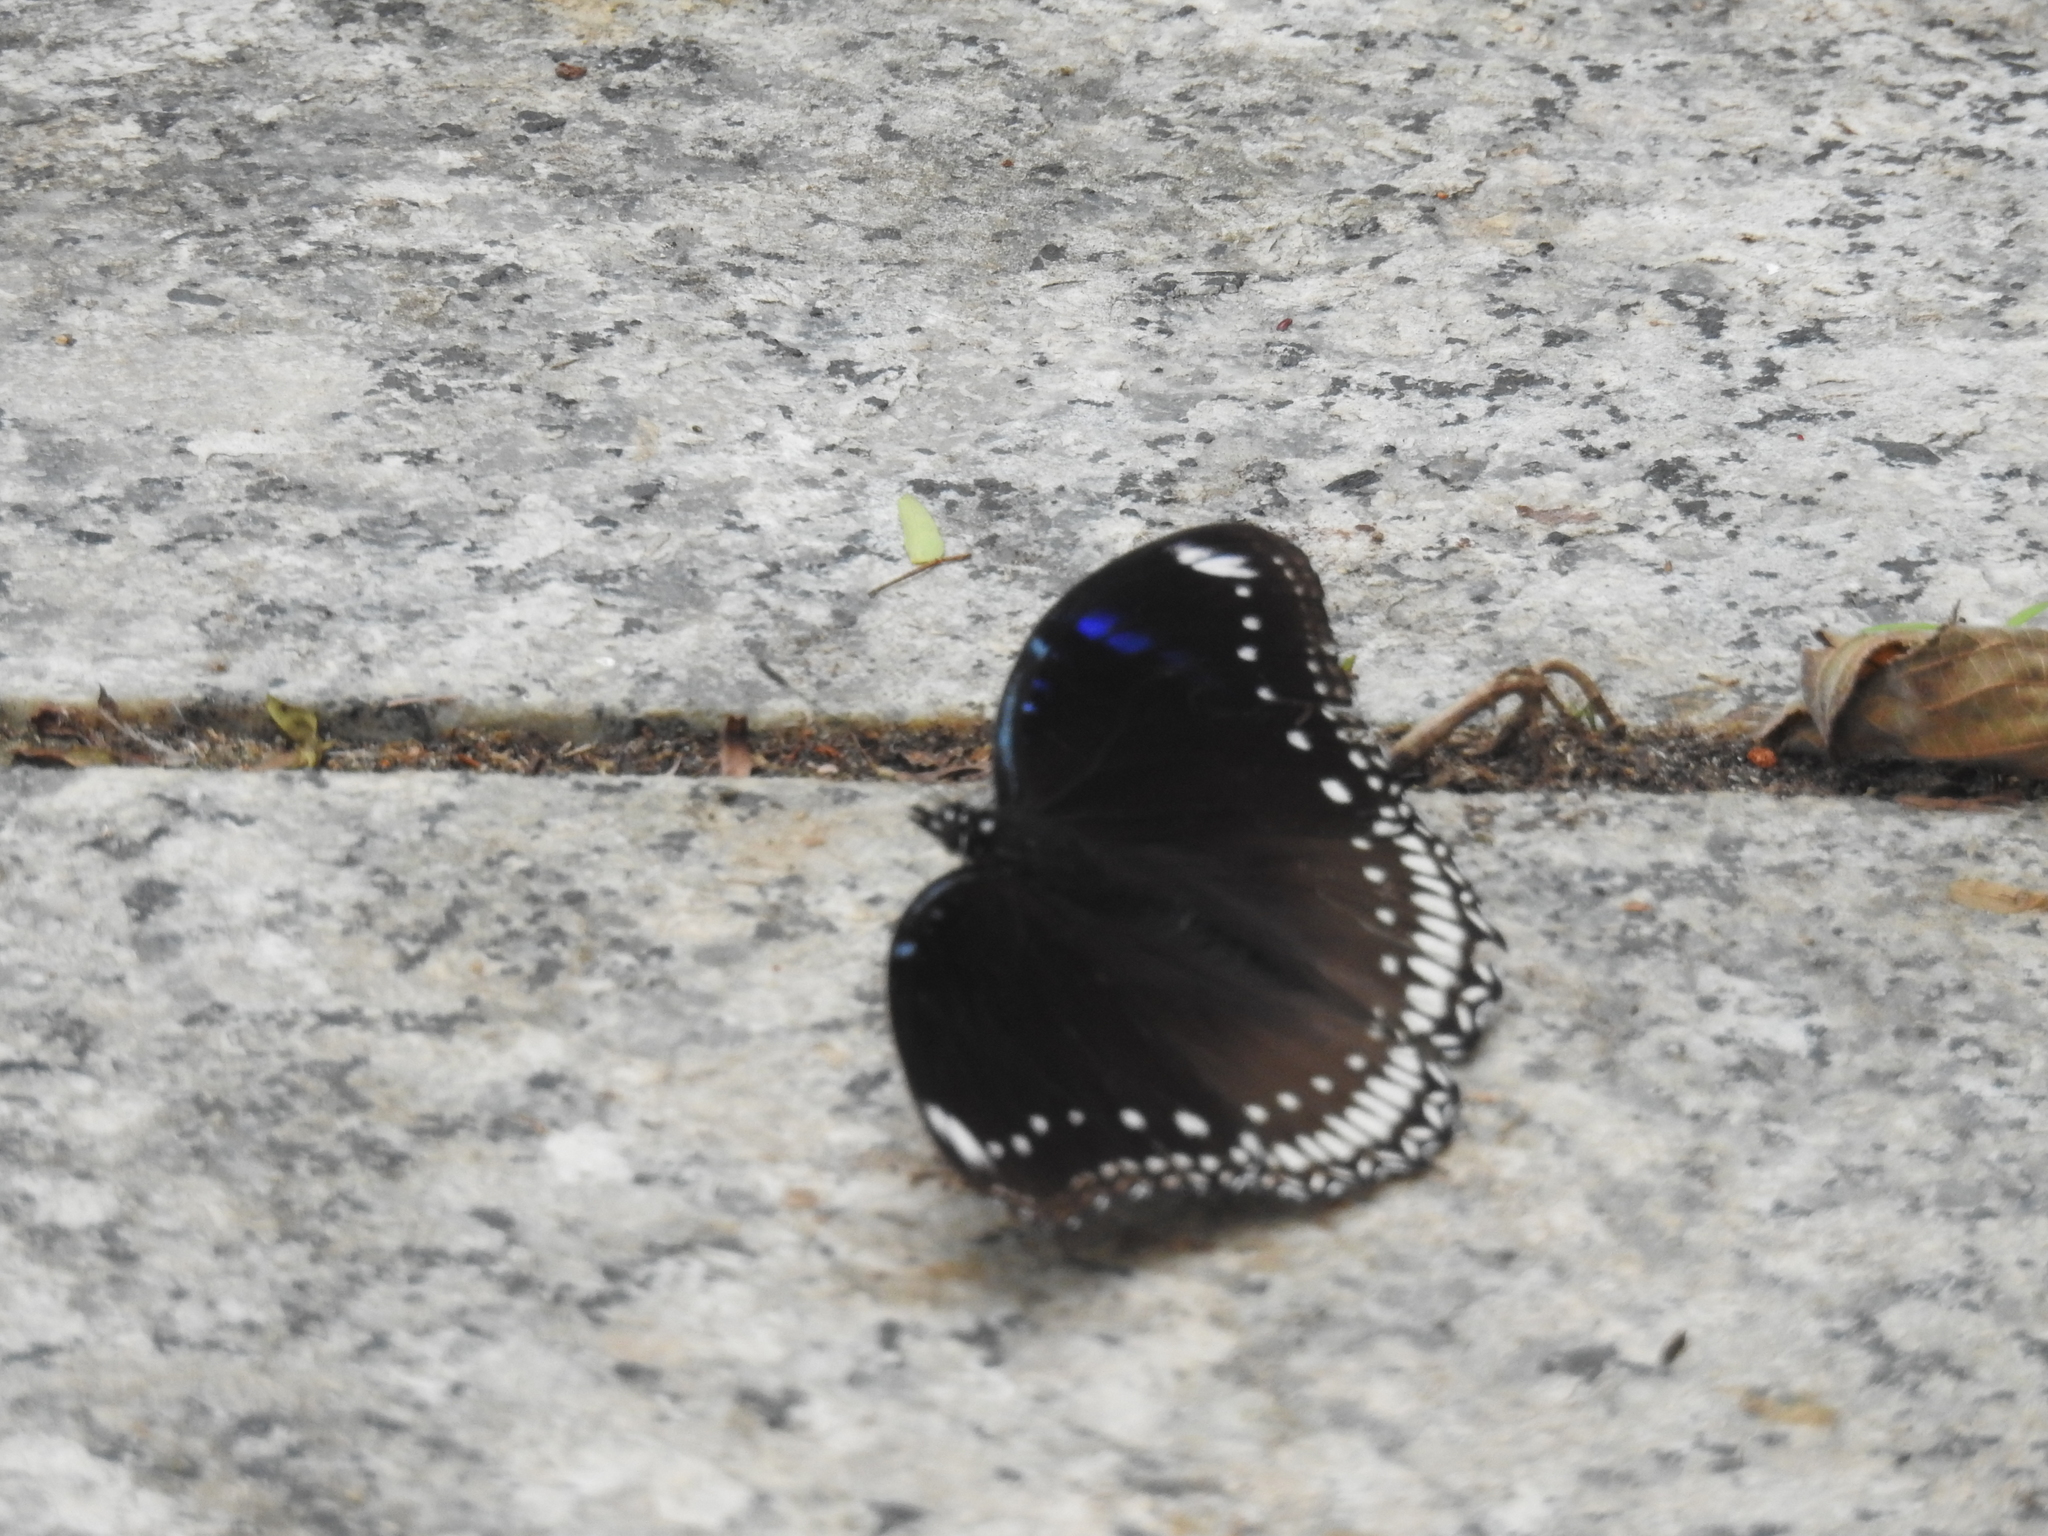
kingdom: Animalia
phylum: Arthropoda
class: Insecta
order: Lepidoptera
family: Nymphalidae
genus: Hypolimnas
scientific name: Hypolimnas bolina
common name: Great eggfly
